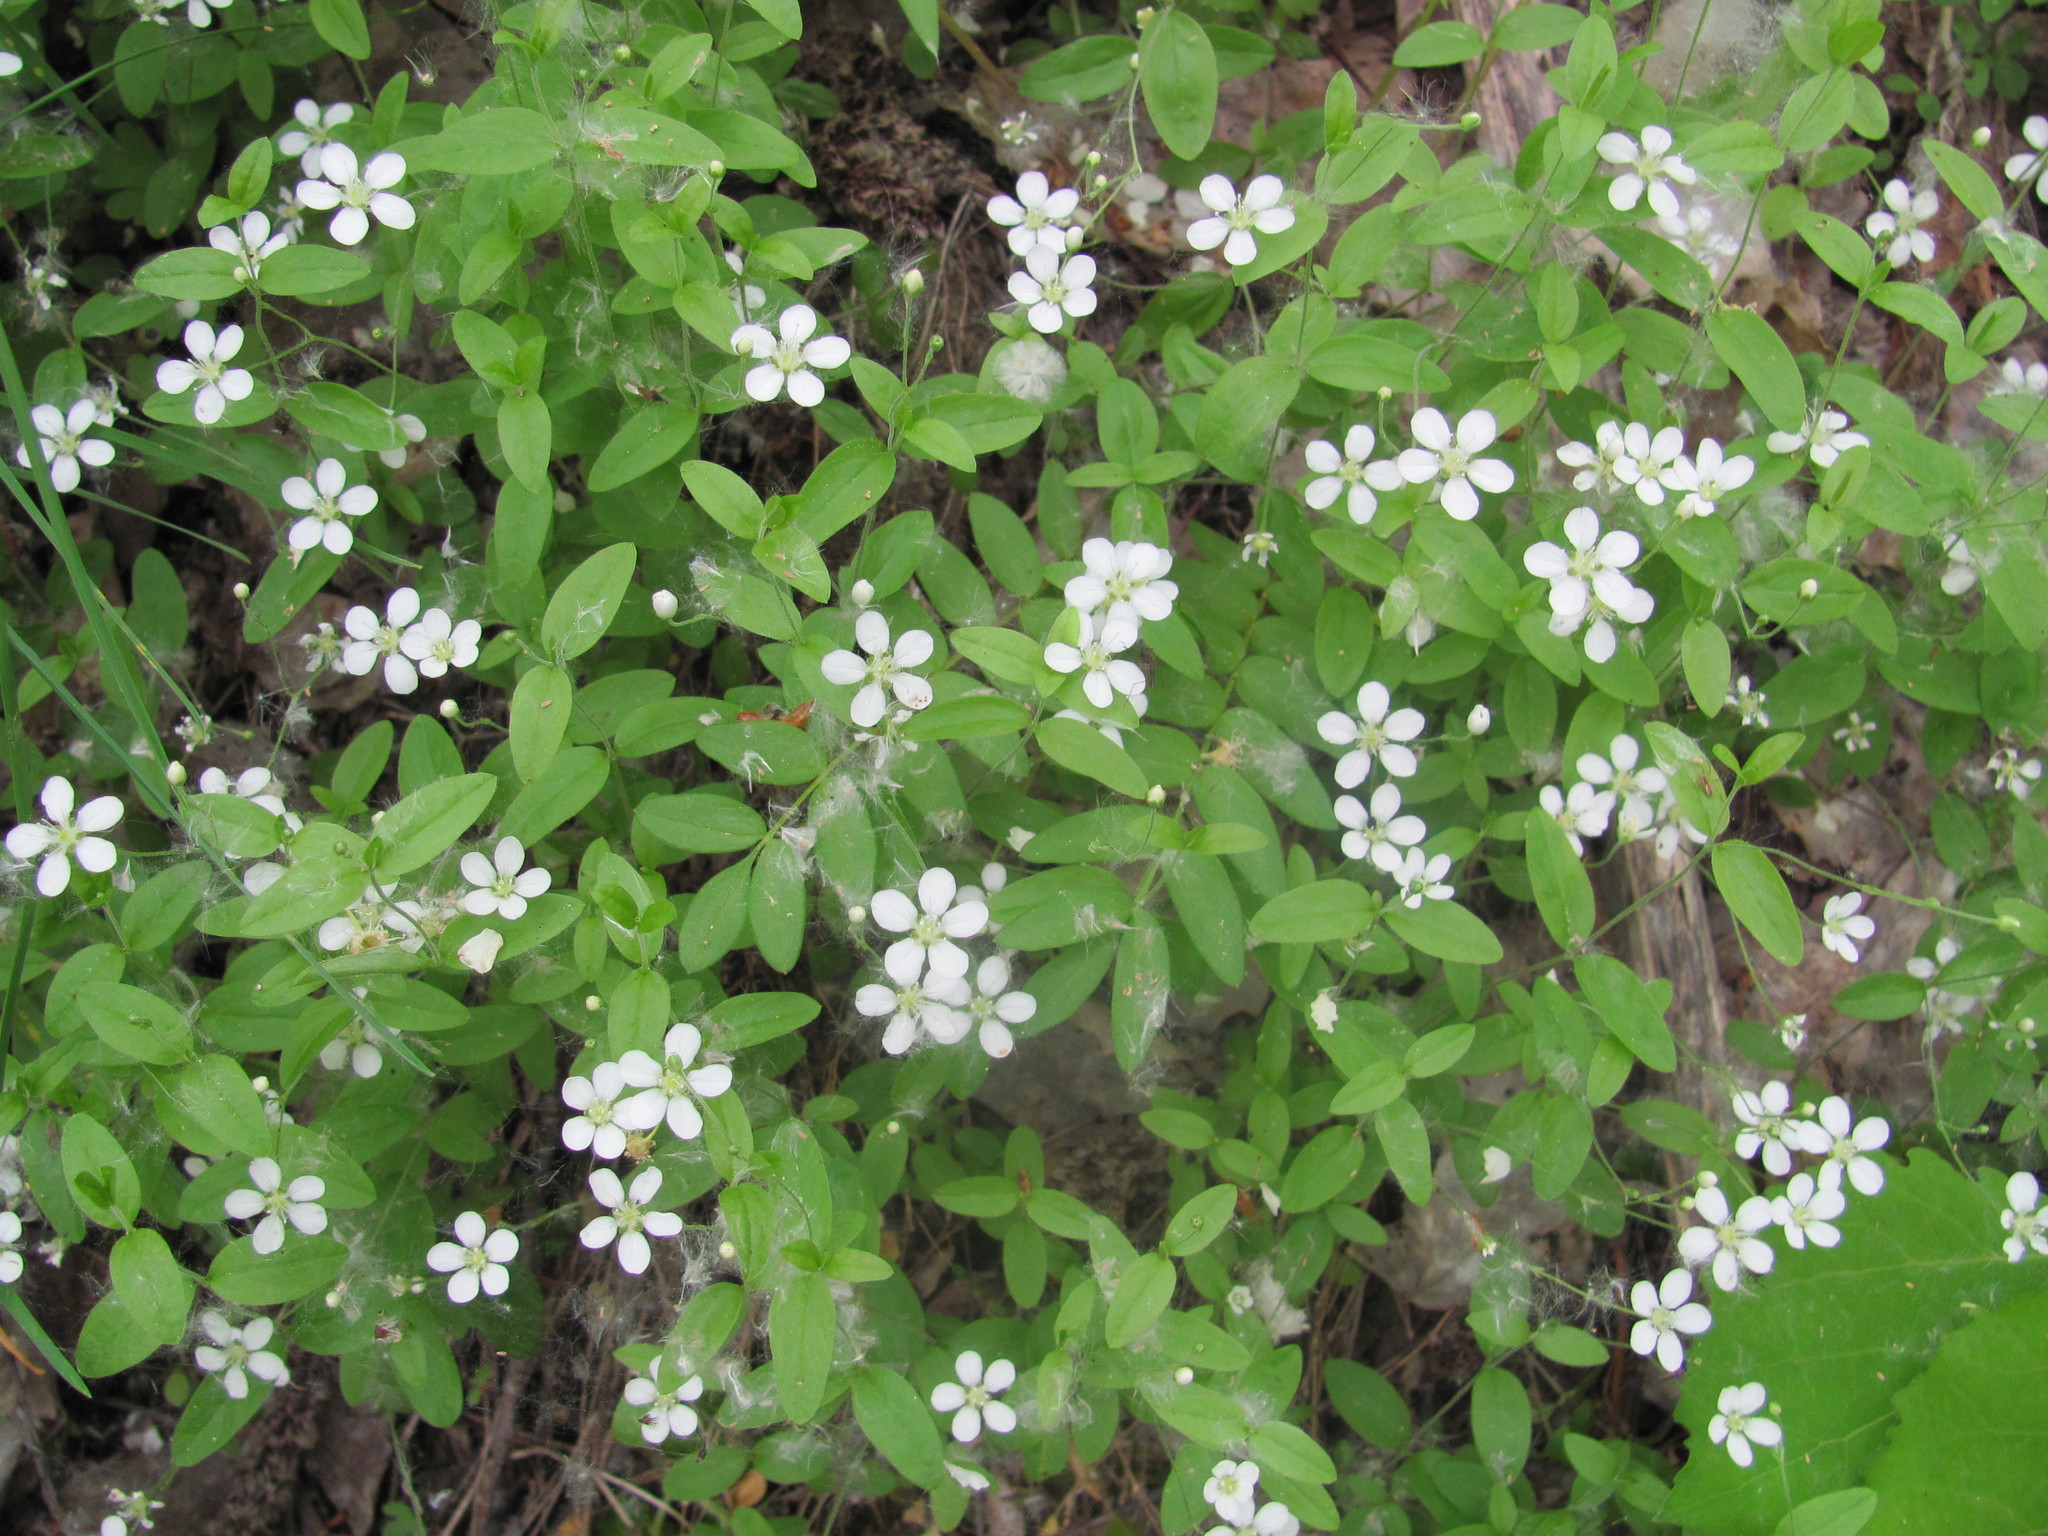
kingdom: Plantae
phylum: Tracheophyta
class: Magnoliopsida
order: Caryophyllales
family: Caryophyllaceae
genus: Moehringia
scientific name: Moehringia lateriflora
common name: Blunt-leaved sandwort
